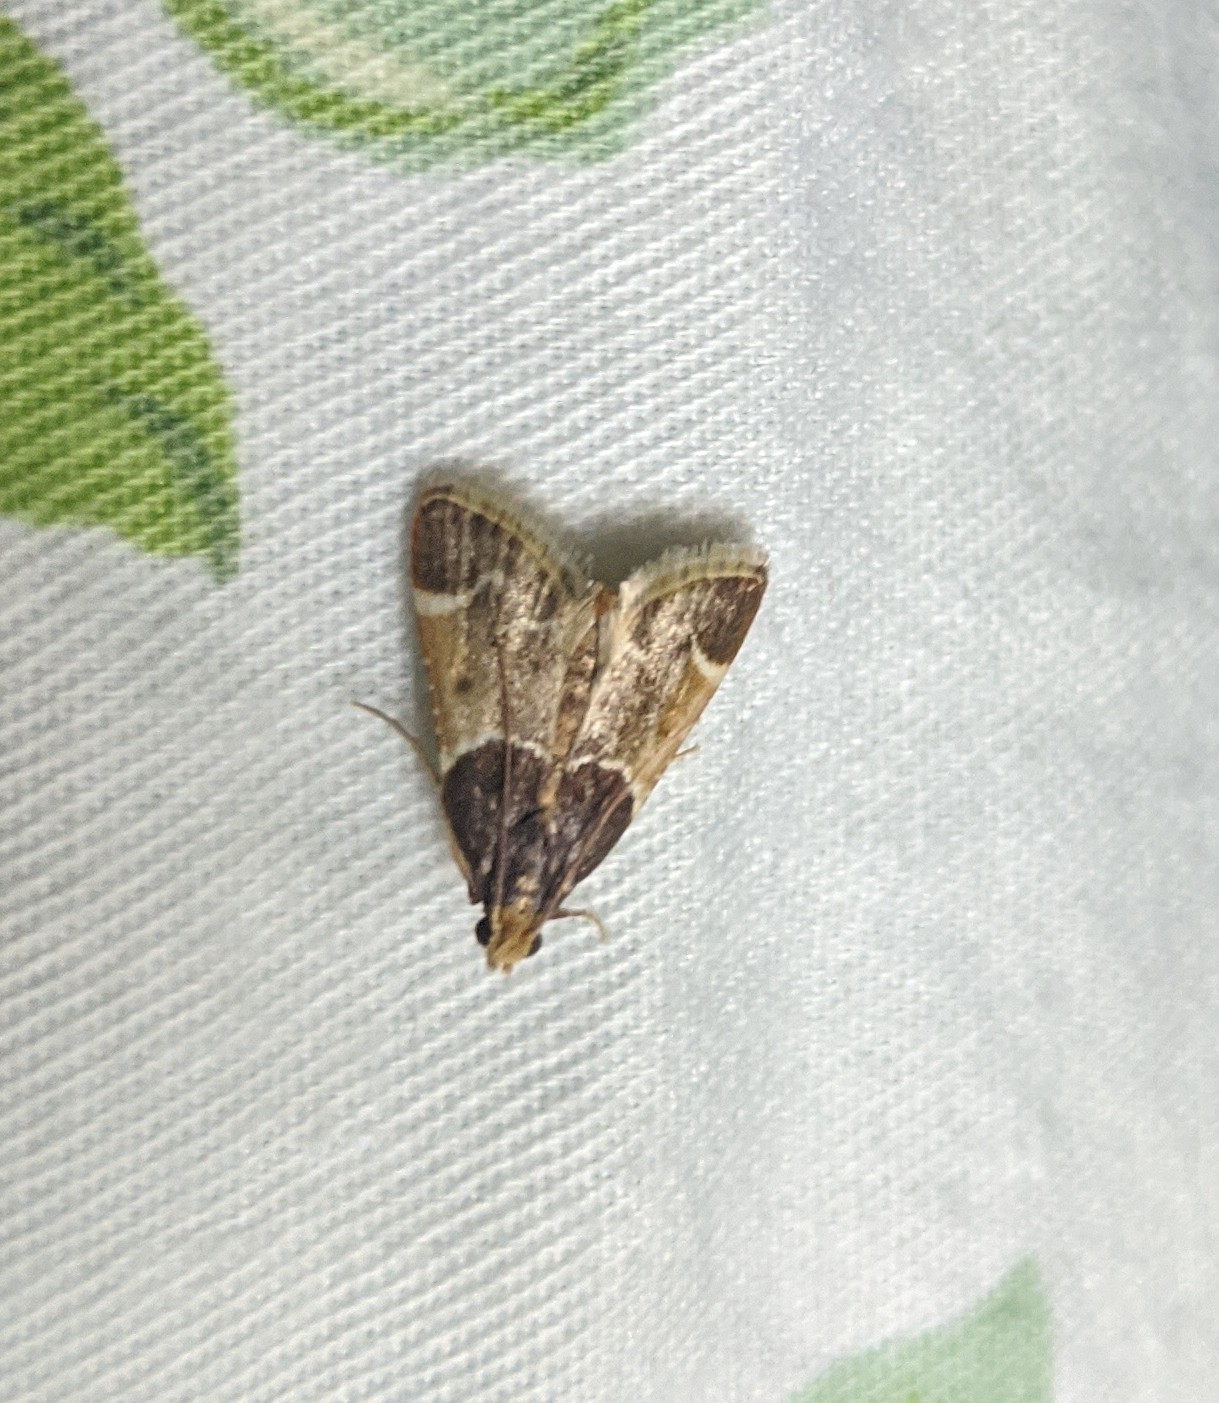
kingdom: Animalia
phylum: Arthropoda
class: Insecta
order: Lepidoptera
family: Pyralidae
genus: Pyralis
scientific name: Pyralis farinalis
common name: Meal moth
